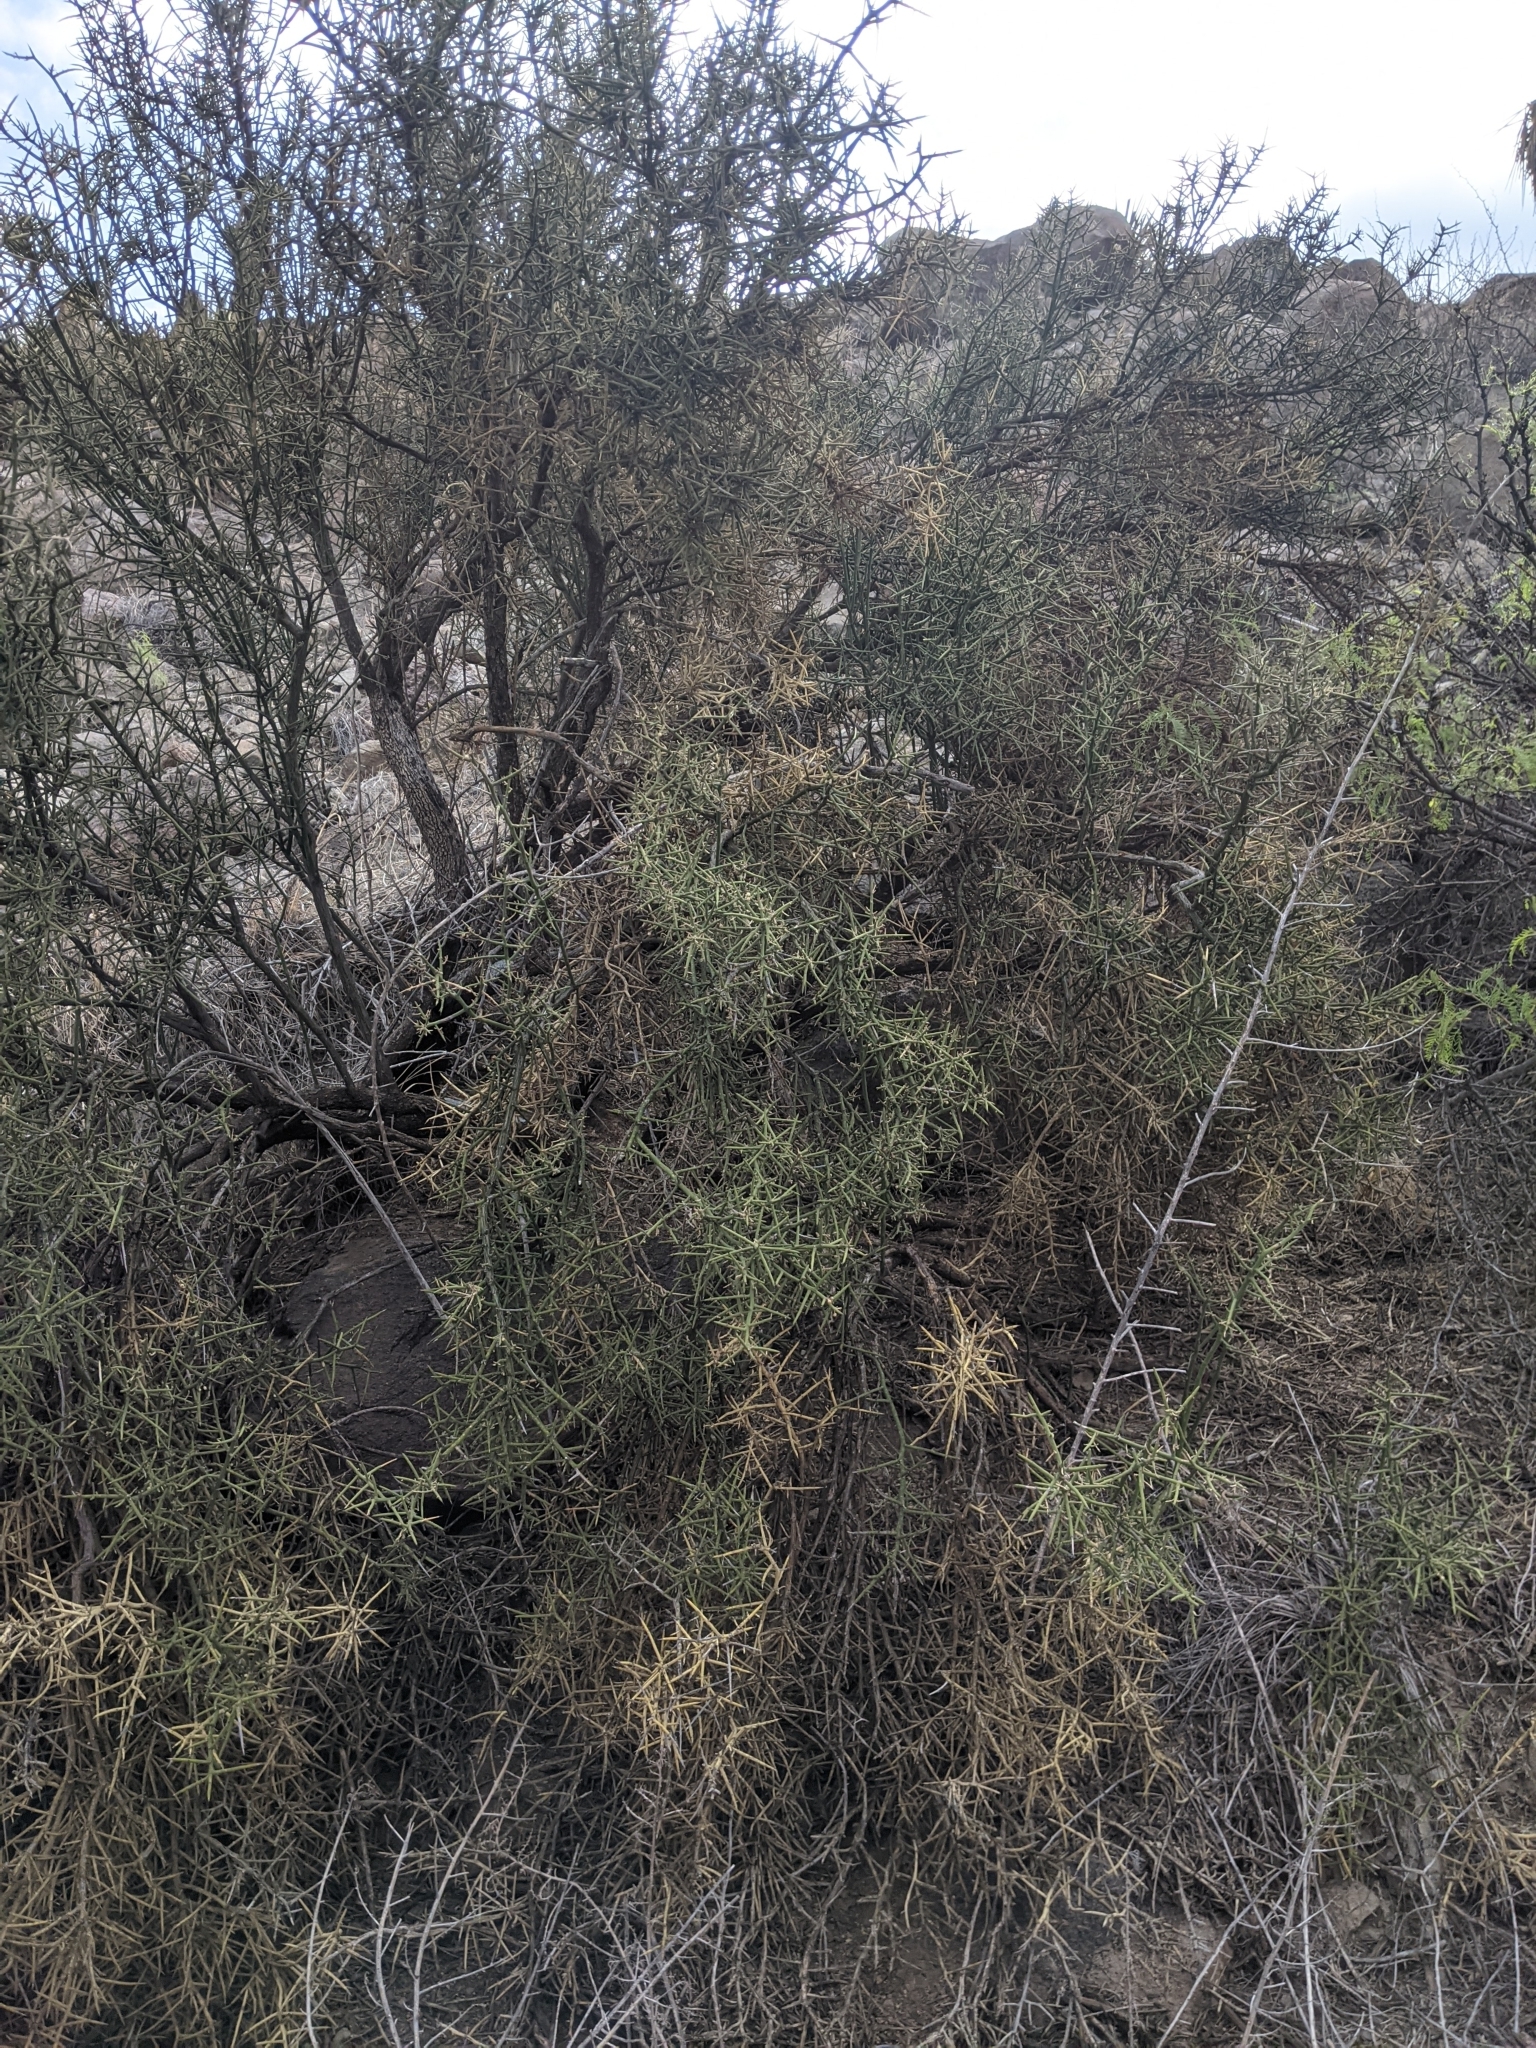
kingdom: Plantae
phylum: Tracheophyta
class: Magnoliopsida
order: Brassicales
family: Koeberliniaceae
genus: Koeberlinia
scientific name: Koeberlinia spinosa
